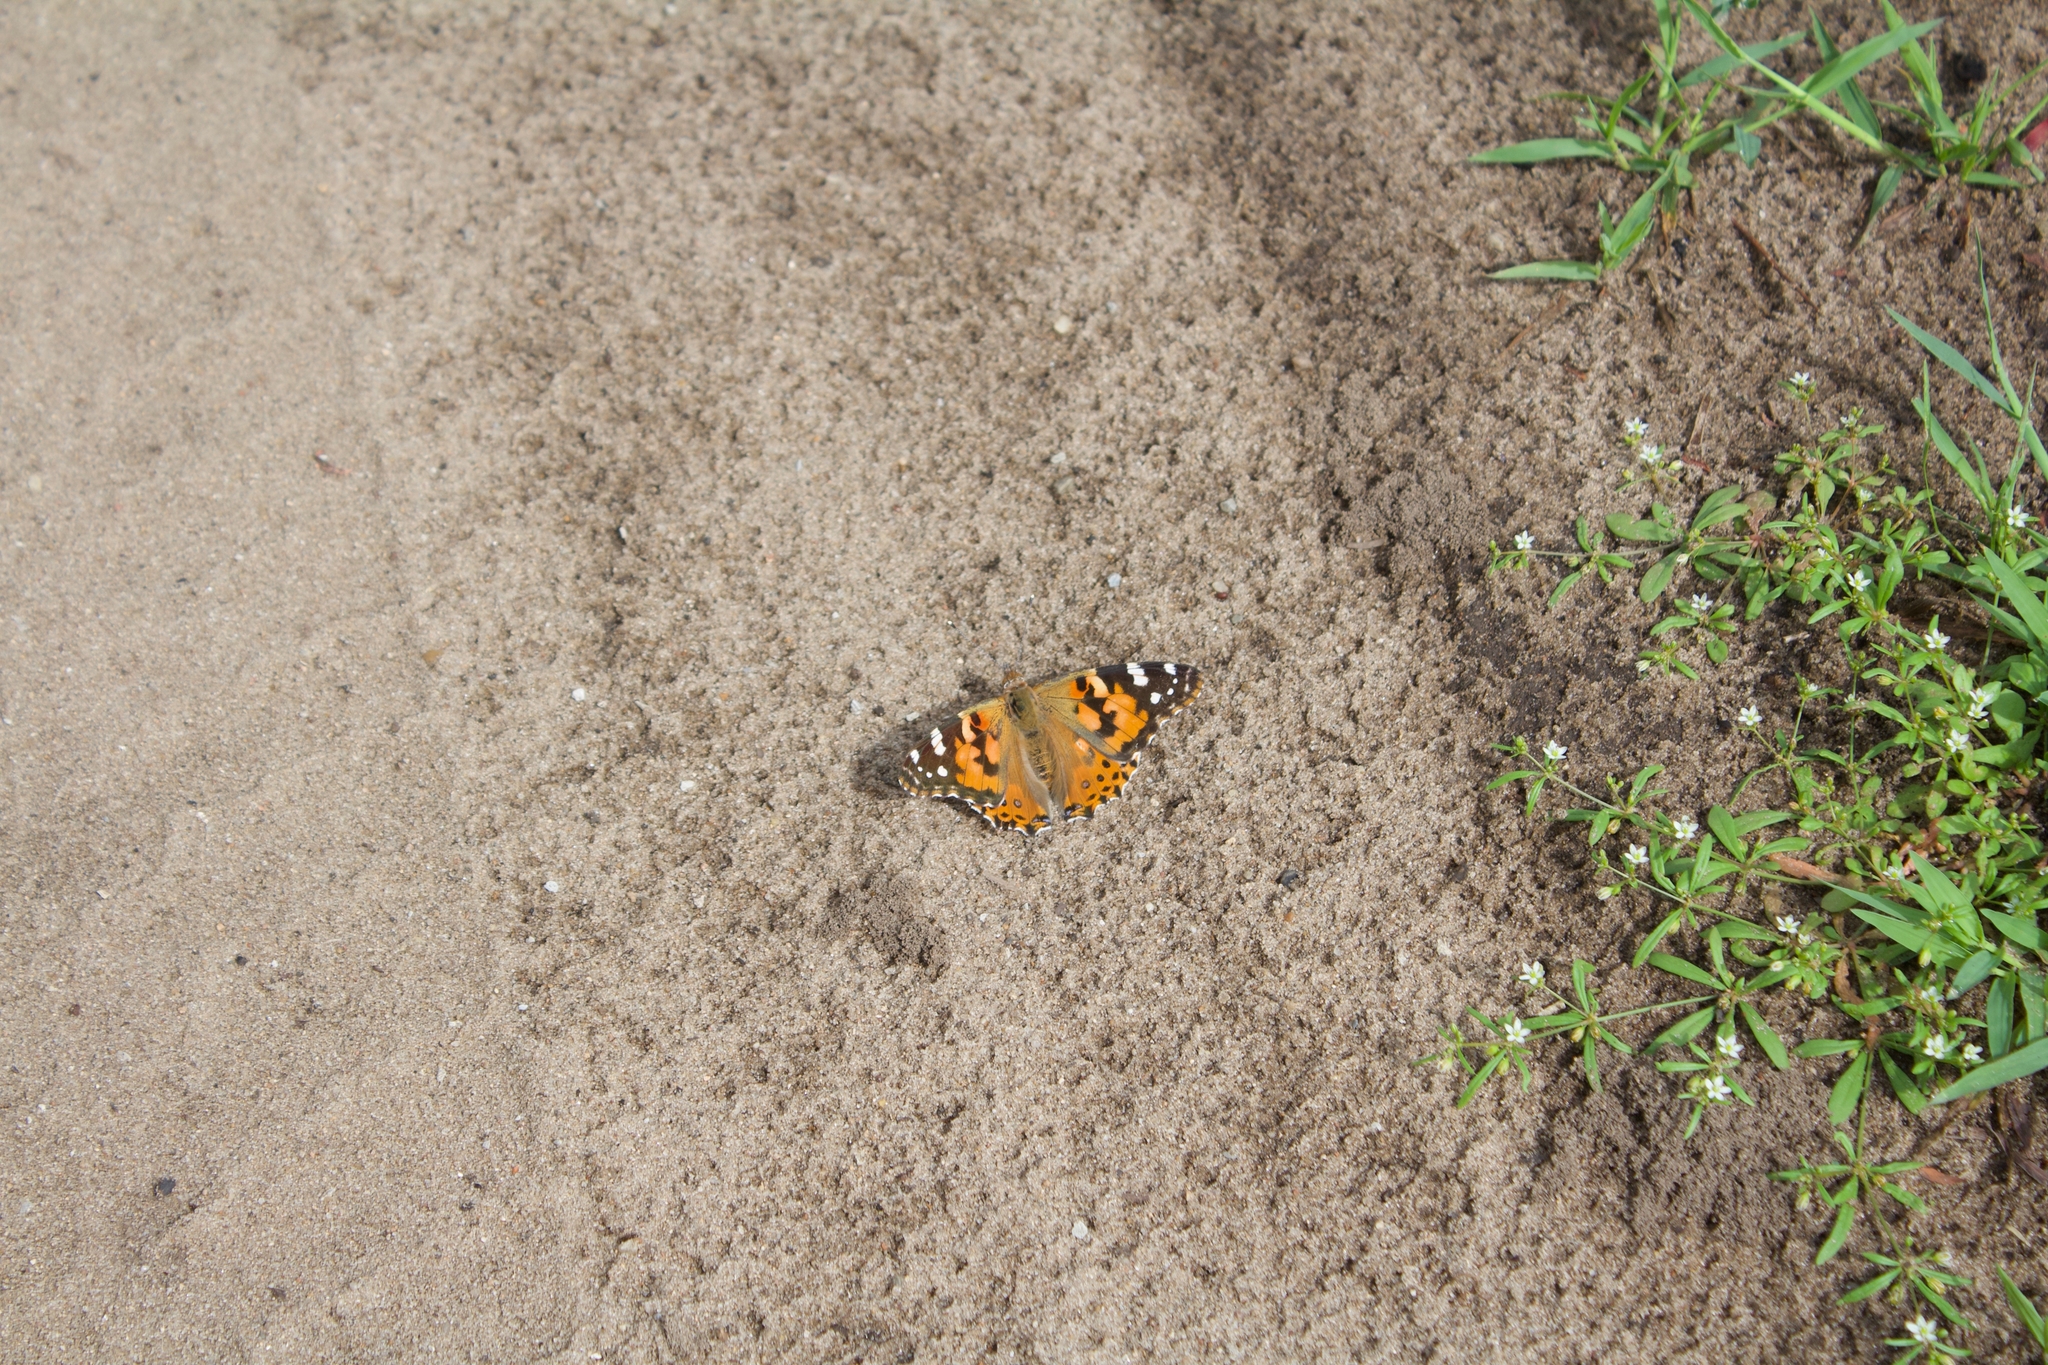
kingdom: Animalia
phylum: Arthropoda
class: Insecta
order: Lepidoptera
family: Nymphalidae
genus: Vanessa
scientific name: Vanessa cardui
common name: Painted lady
